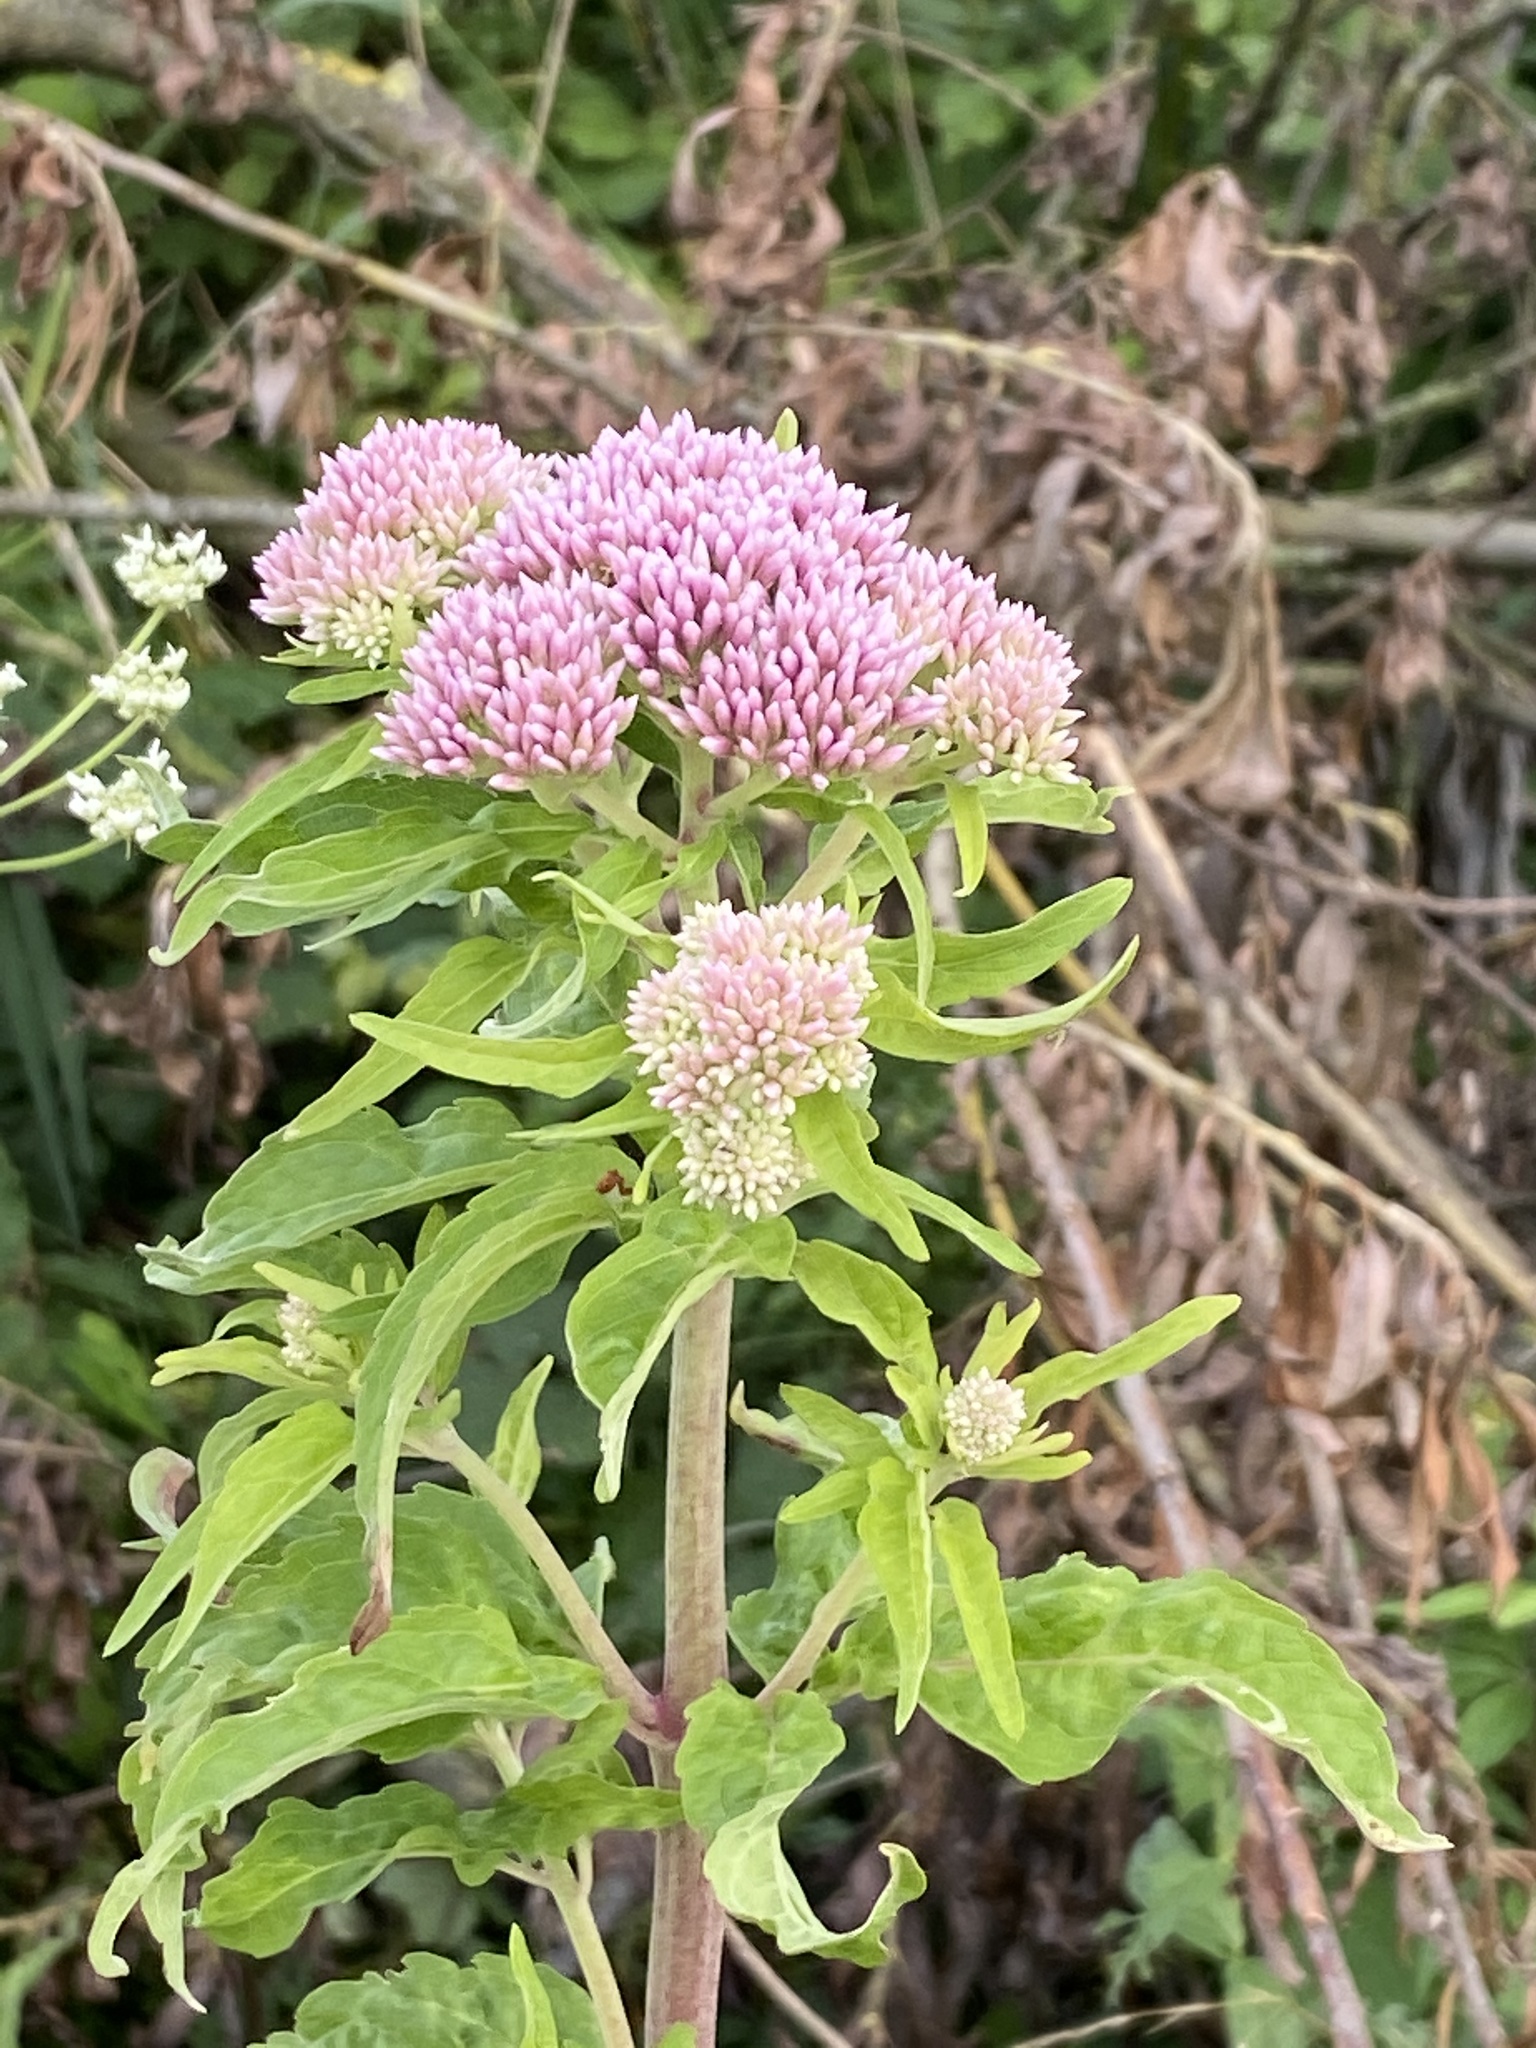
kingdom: Plantae
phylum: Tracheophyta
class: Magnoliopsida
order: Asterales
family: Asteraceae
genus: Eupatorium
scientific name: Eupatorium cannabinum
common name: Hemp-agrimony
